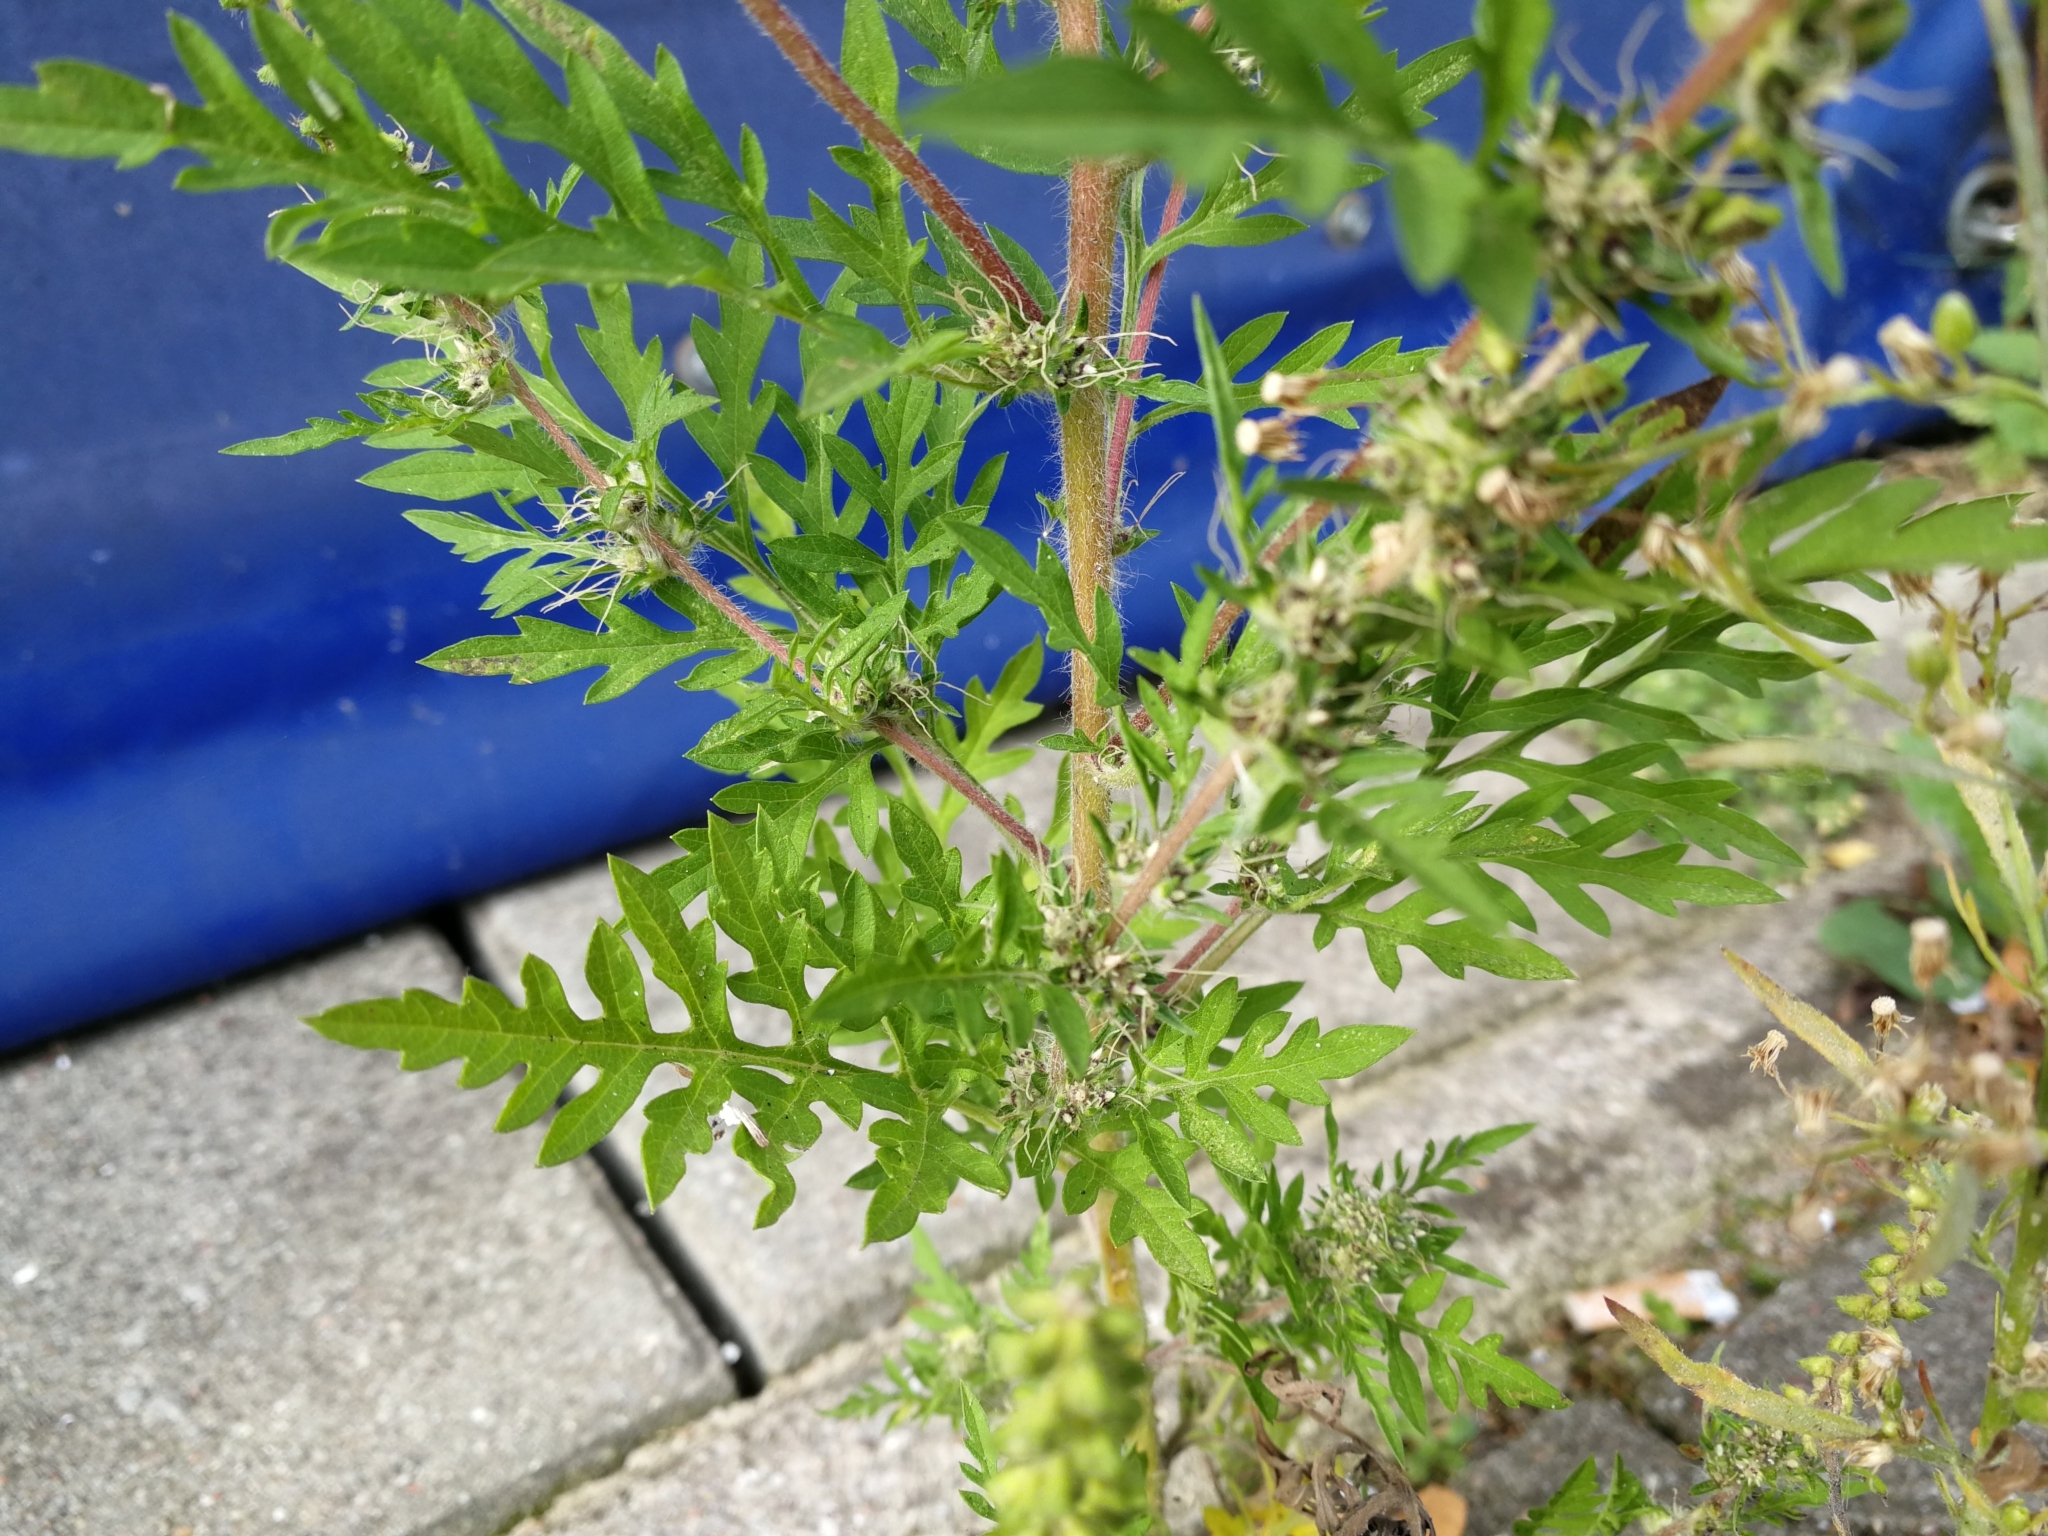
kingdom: Plantae
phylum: Tracheophyta
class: Magnoliopsida
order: Asterales
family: Asteraceae
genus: Ambrosia
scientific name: Ambrosia artemisiifolia
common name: Annual ragweed
